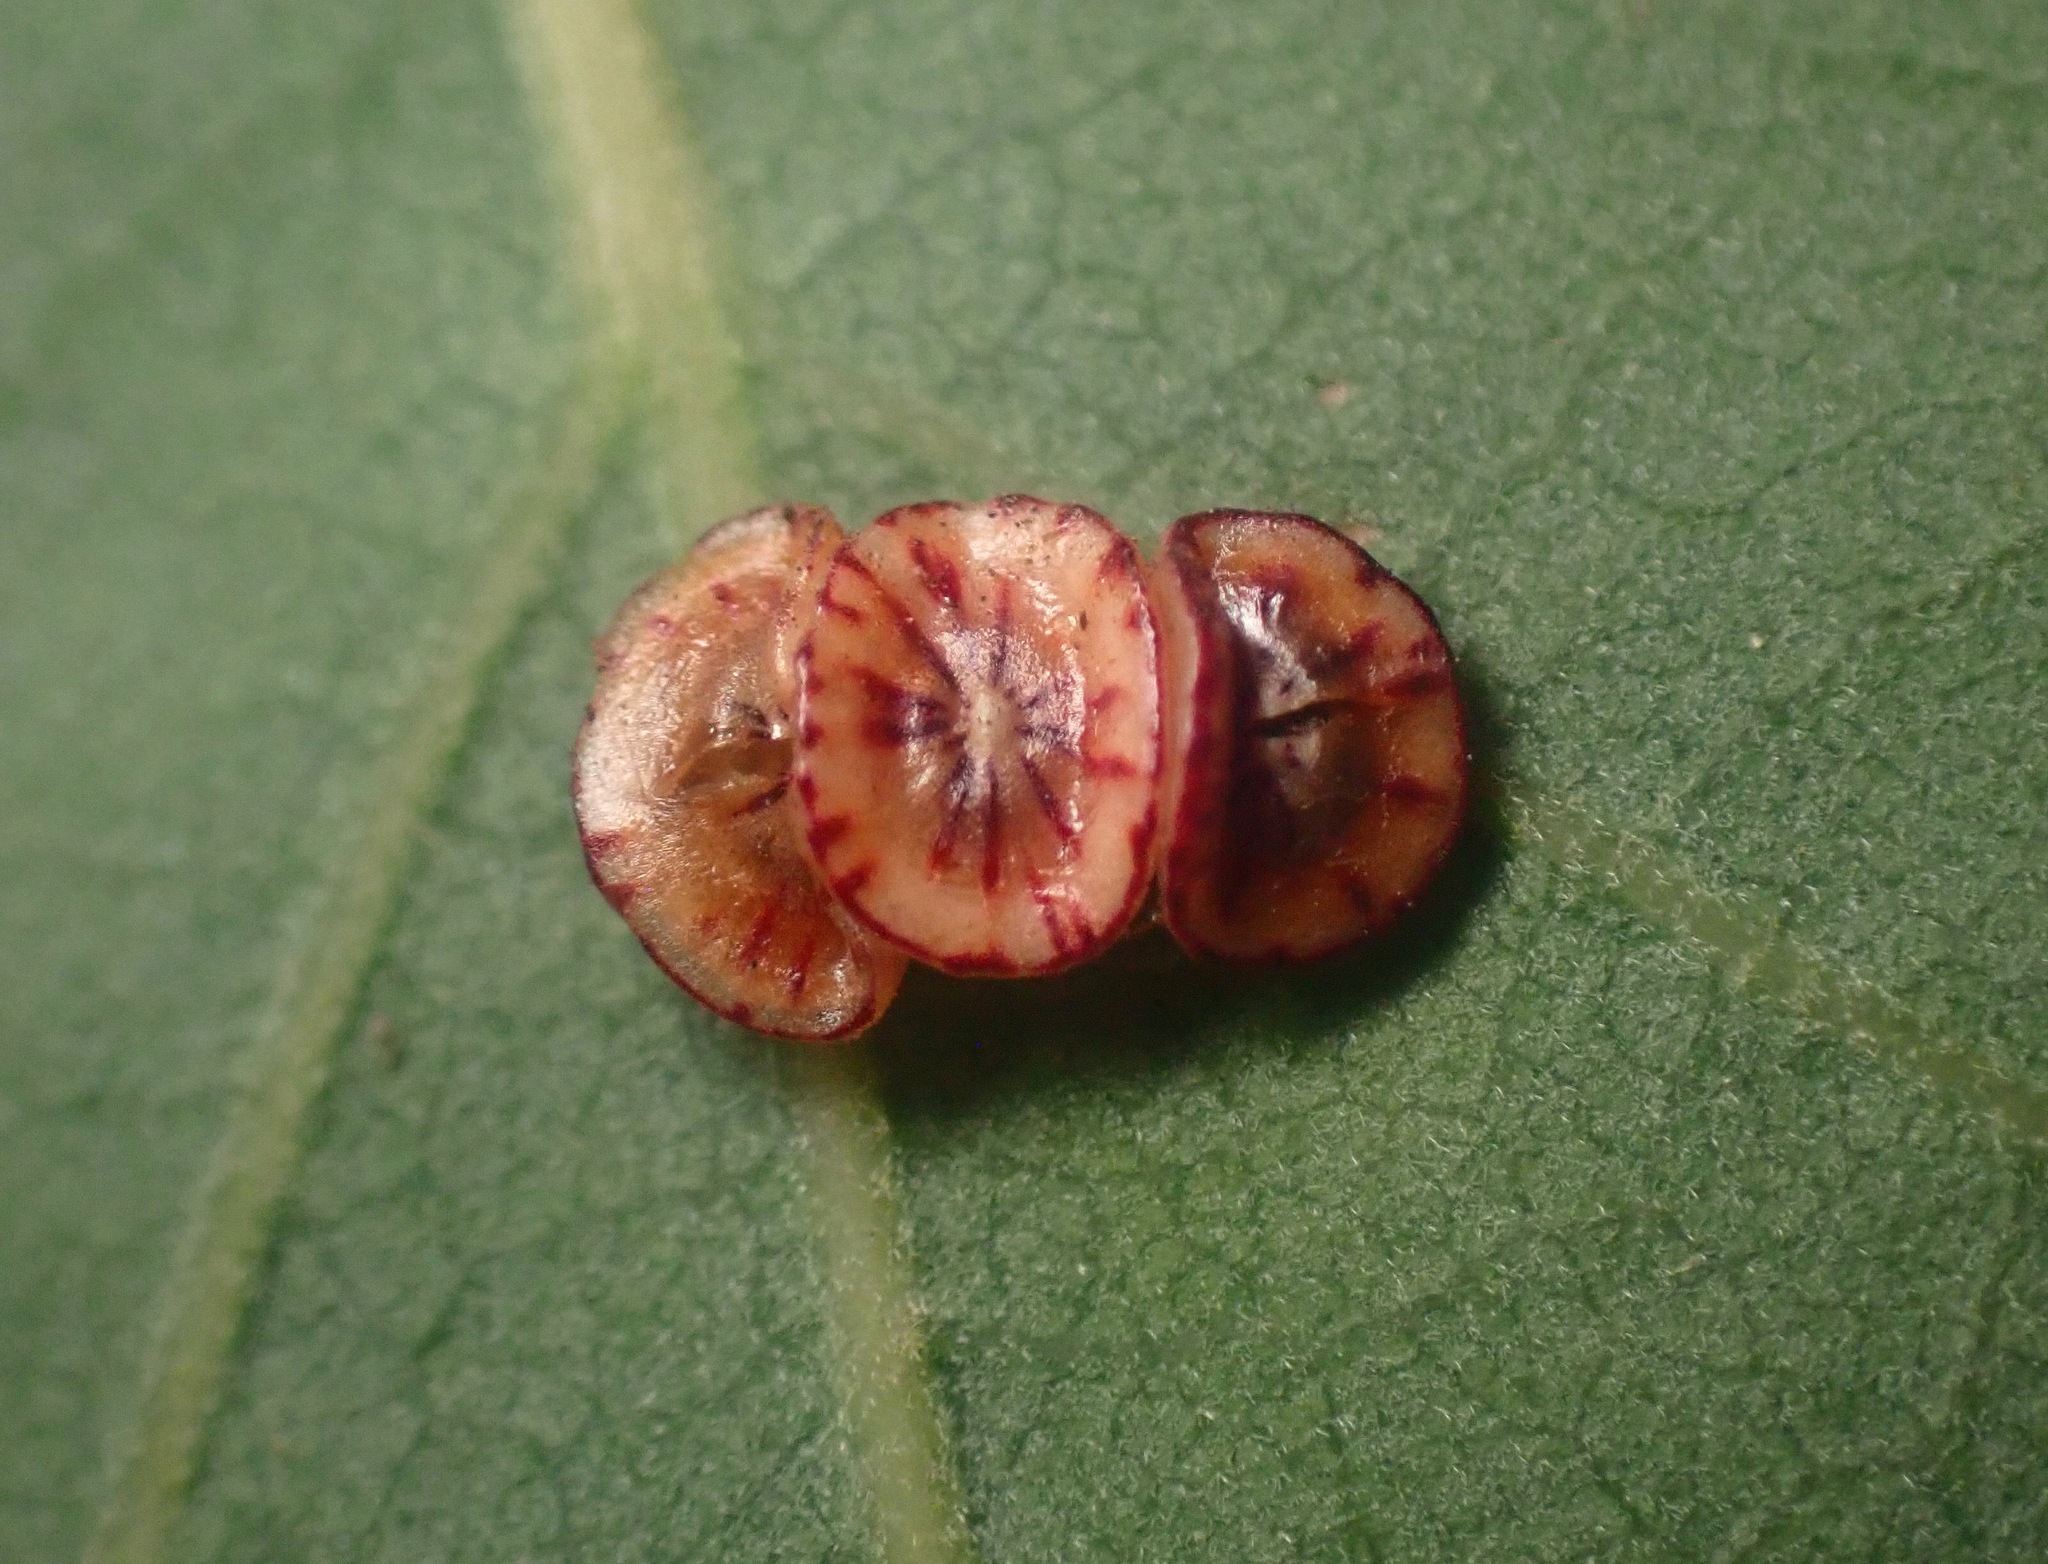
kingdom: Animalia
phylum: Arthropoda
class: Insecta
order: Hymenoptera
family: Cynipidae
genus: Andricus
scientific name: Andricus
